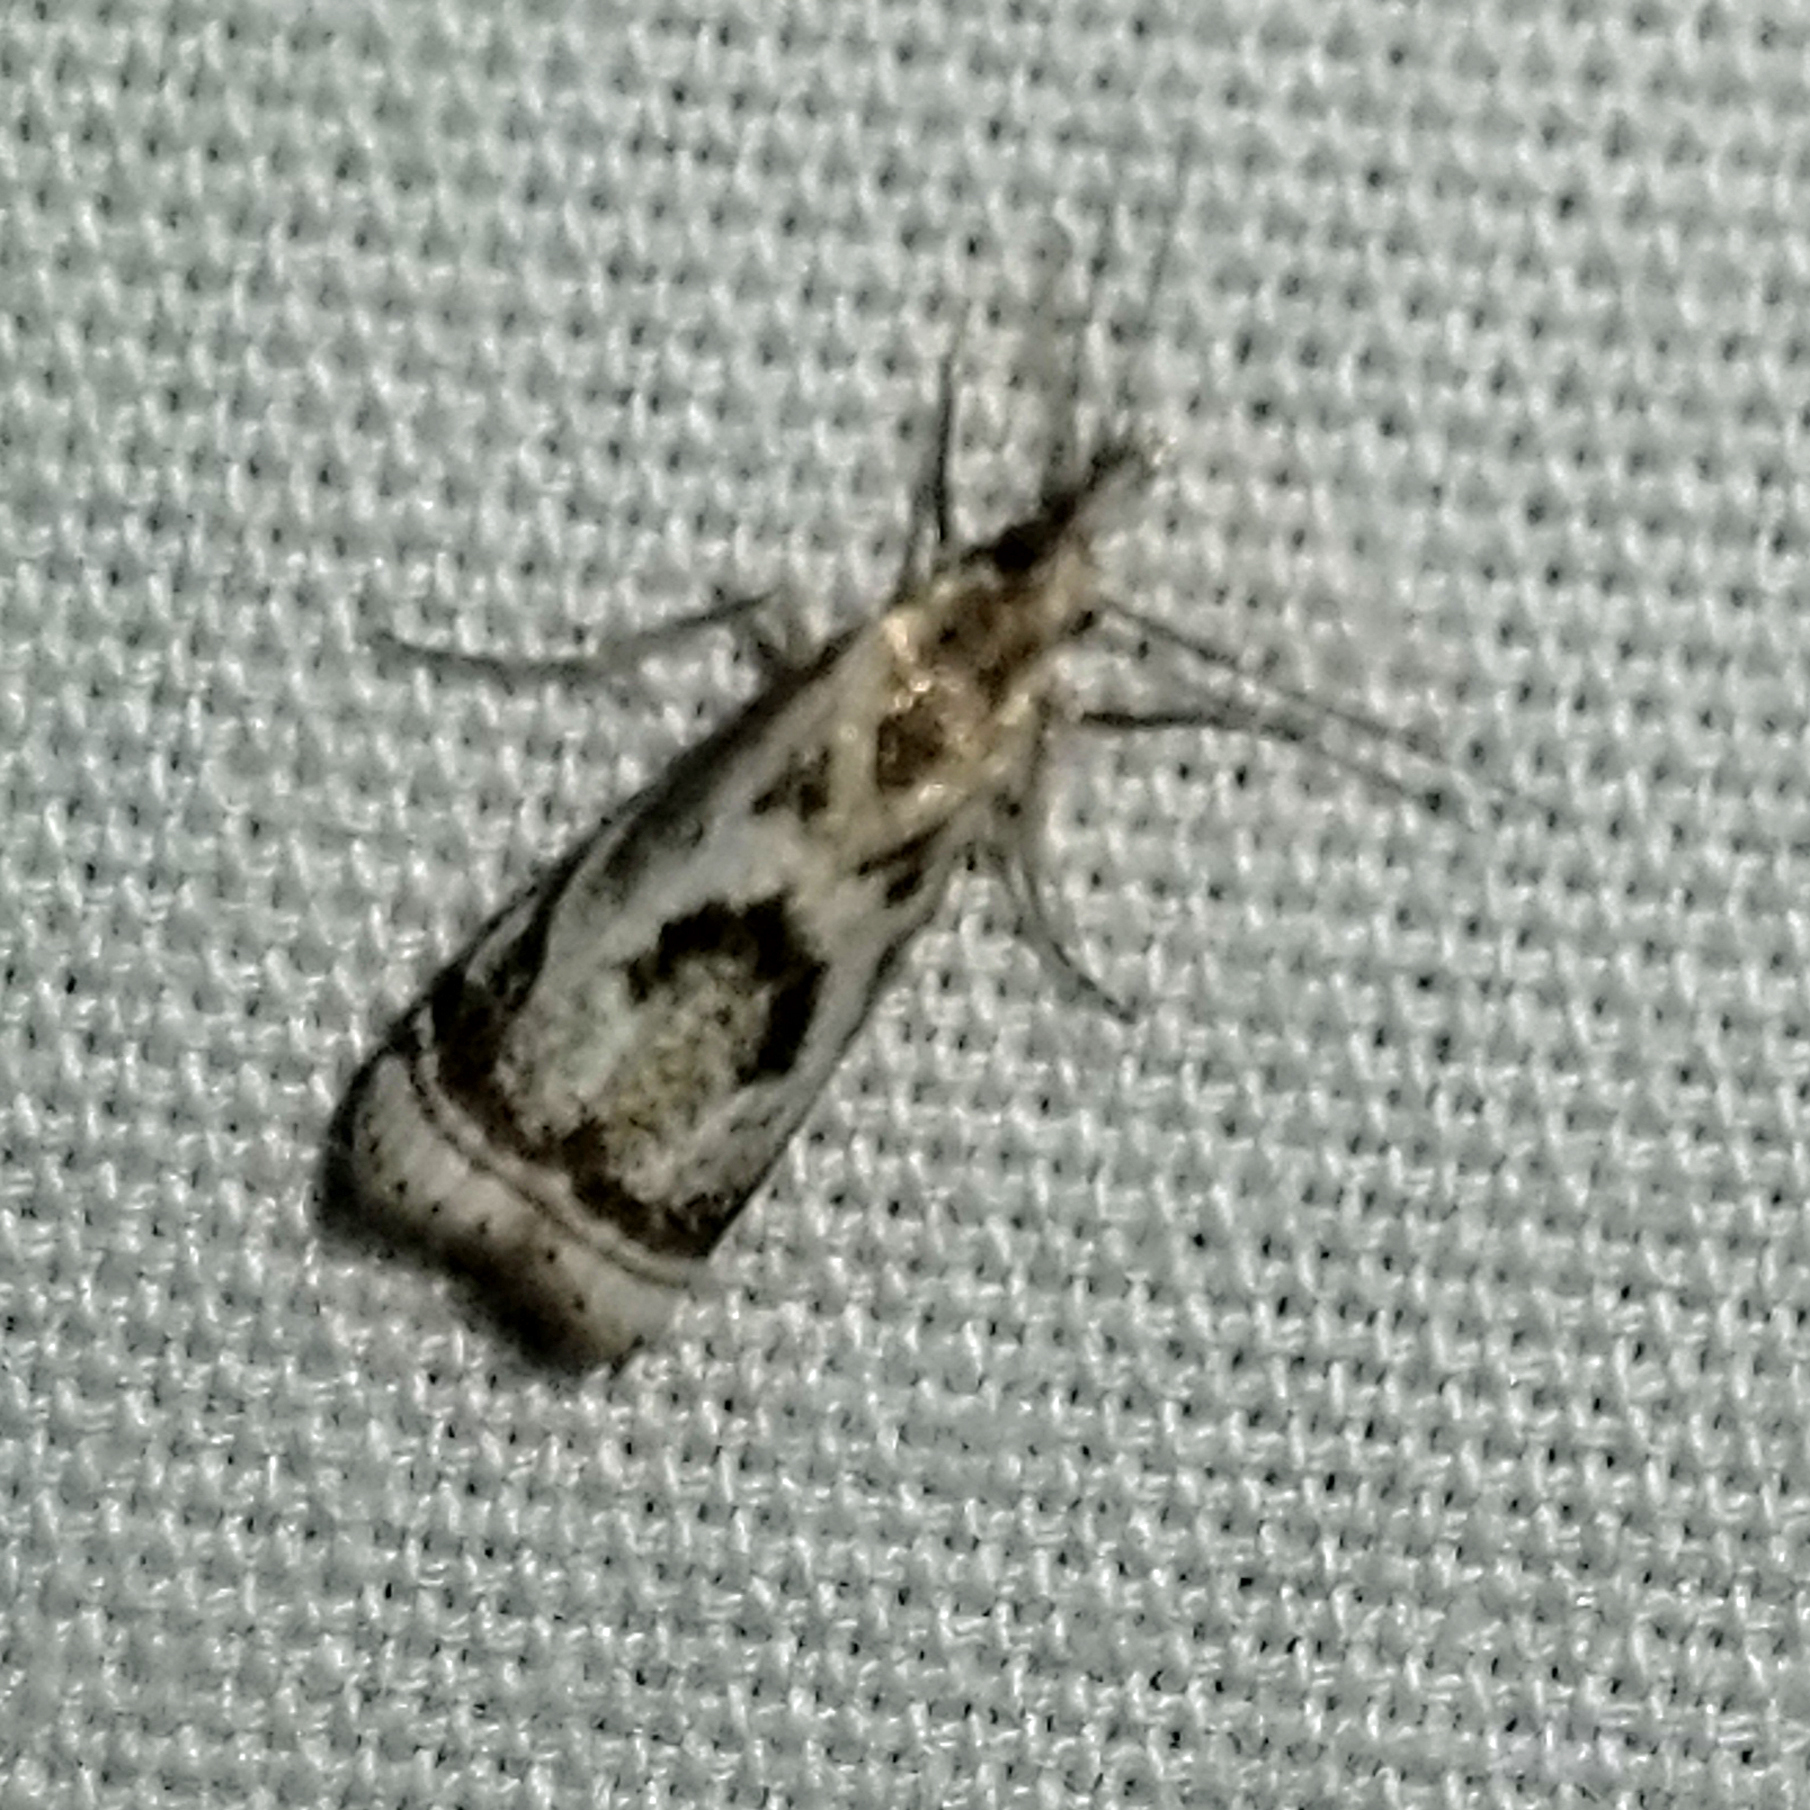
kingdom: Animalia
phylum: Arthropoda
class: Insecta
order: Lepidoptera
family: Crambidae
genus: Microcrambus
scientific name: Microcrambus elegans
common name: Elegant grass-veneer
